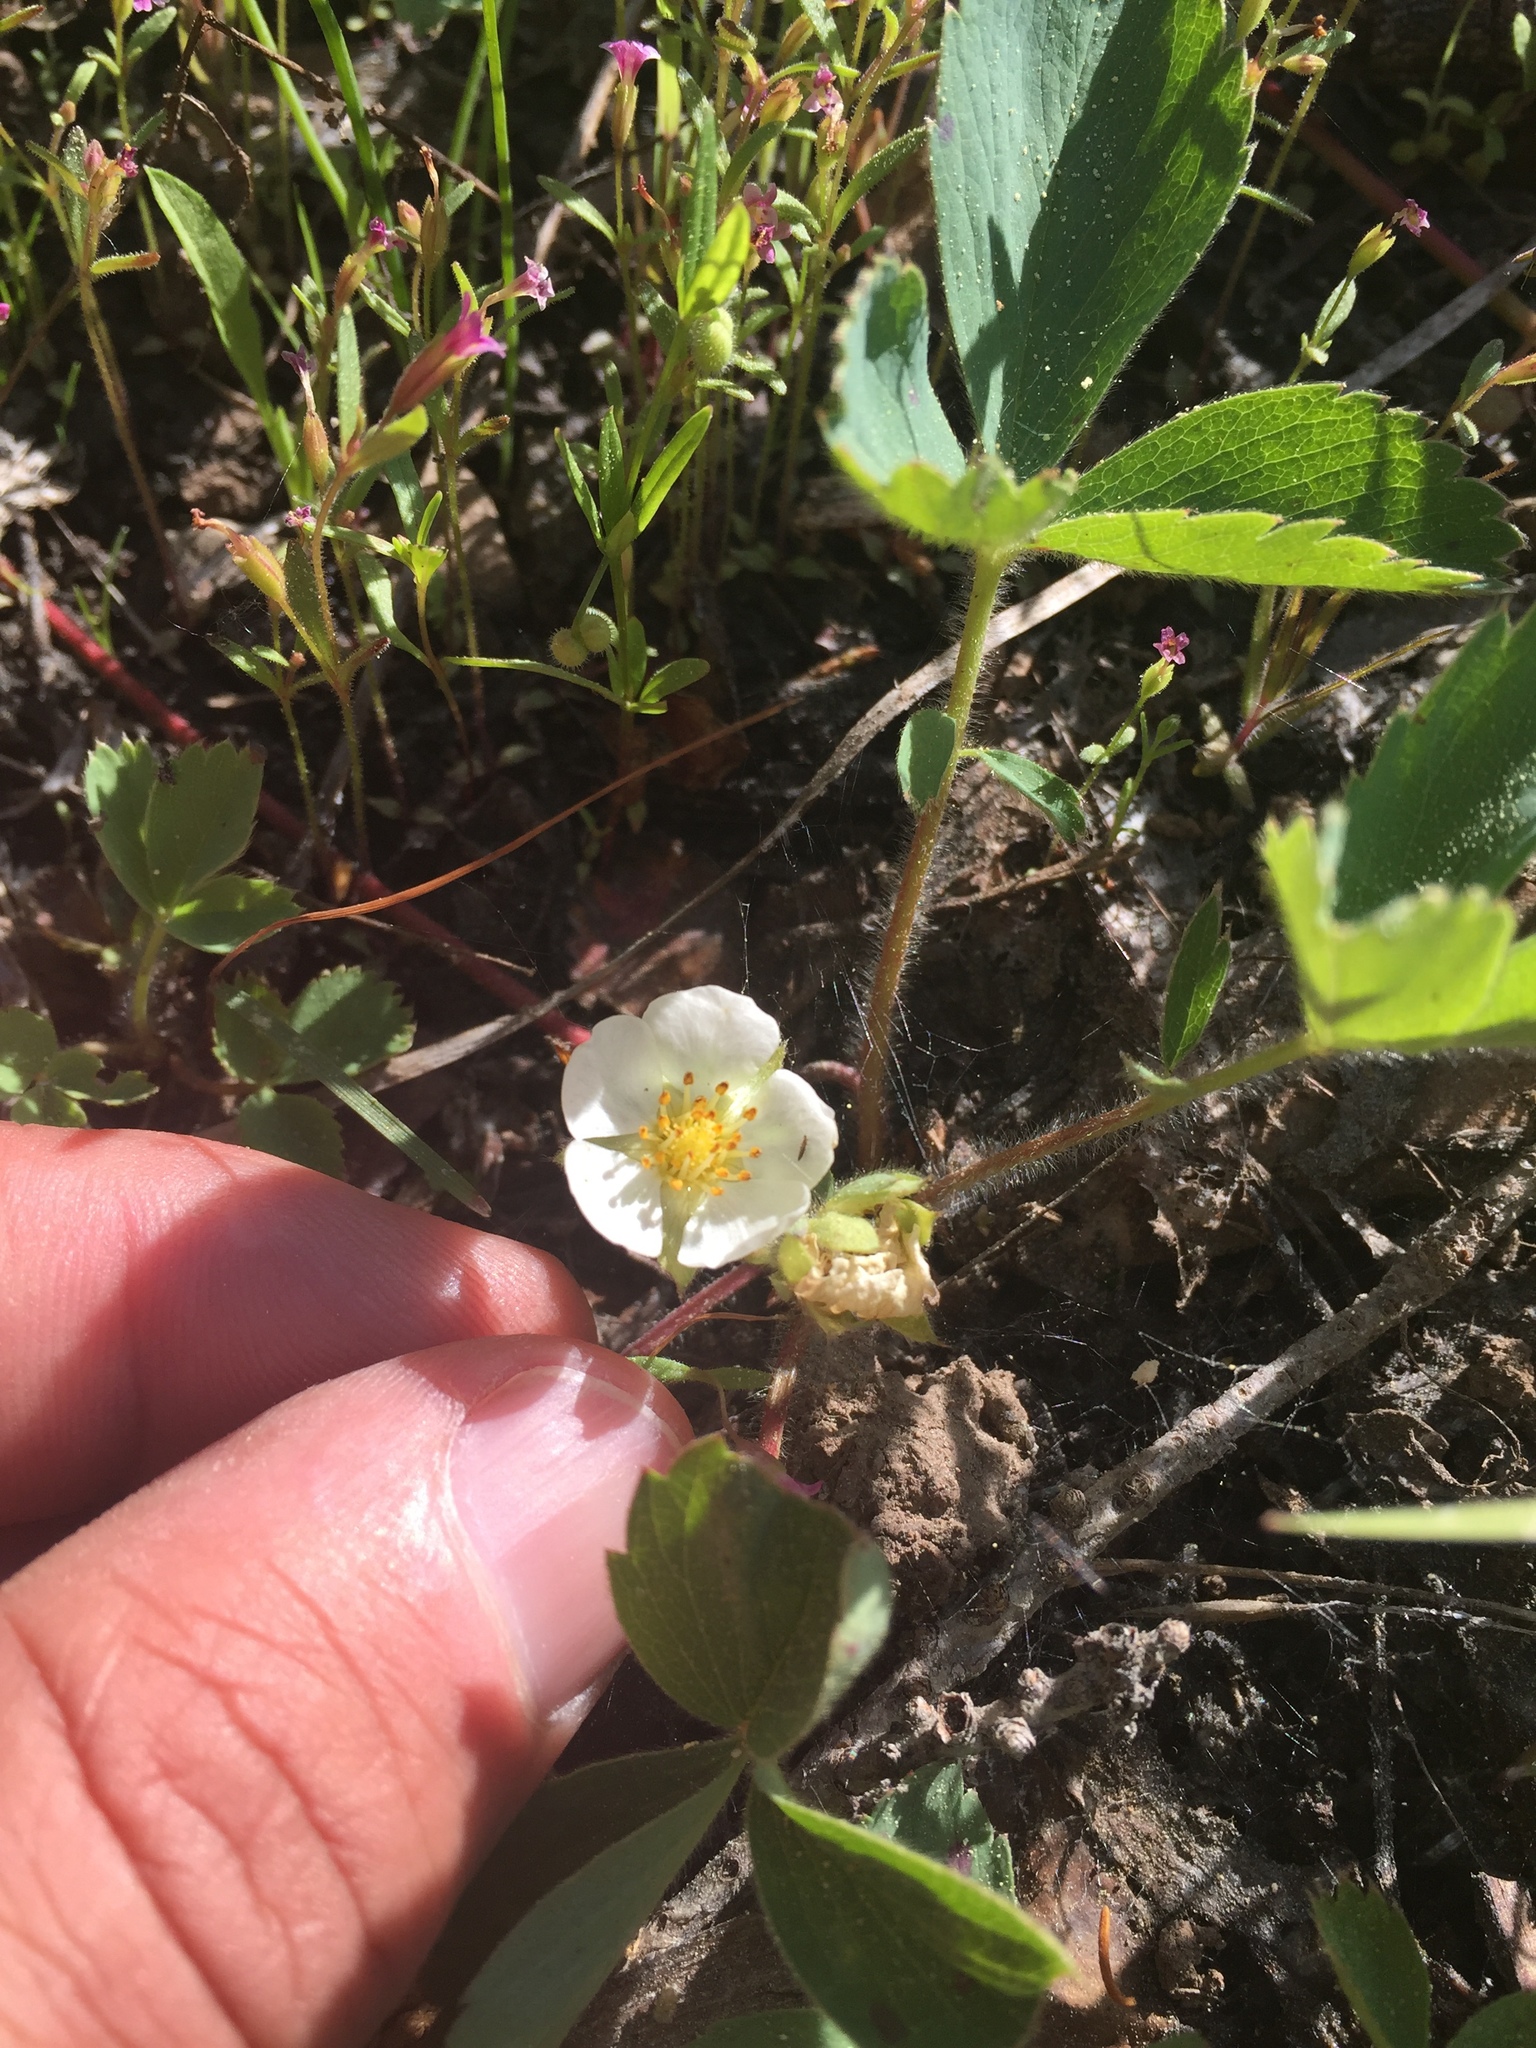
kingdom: Plantae
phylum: Tracheophyta
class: Magnoliopsida
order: Rosales
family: Rosaceae
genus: Fragaria
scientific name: Fragaria virginiana
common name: Thickleaved wild strawberry
